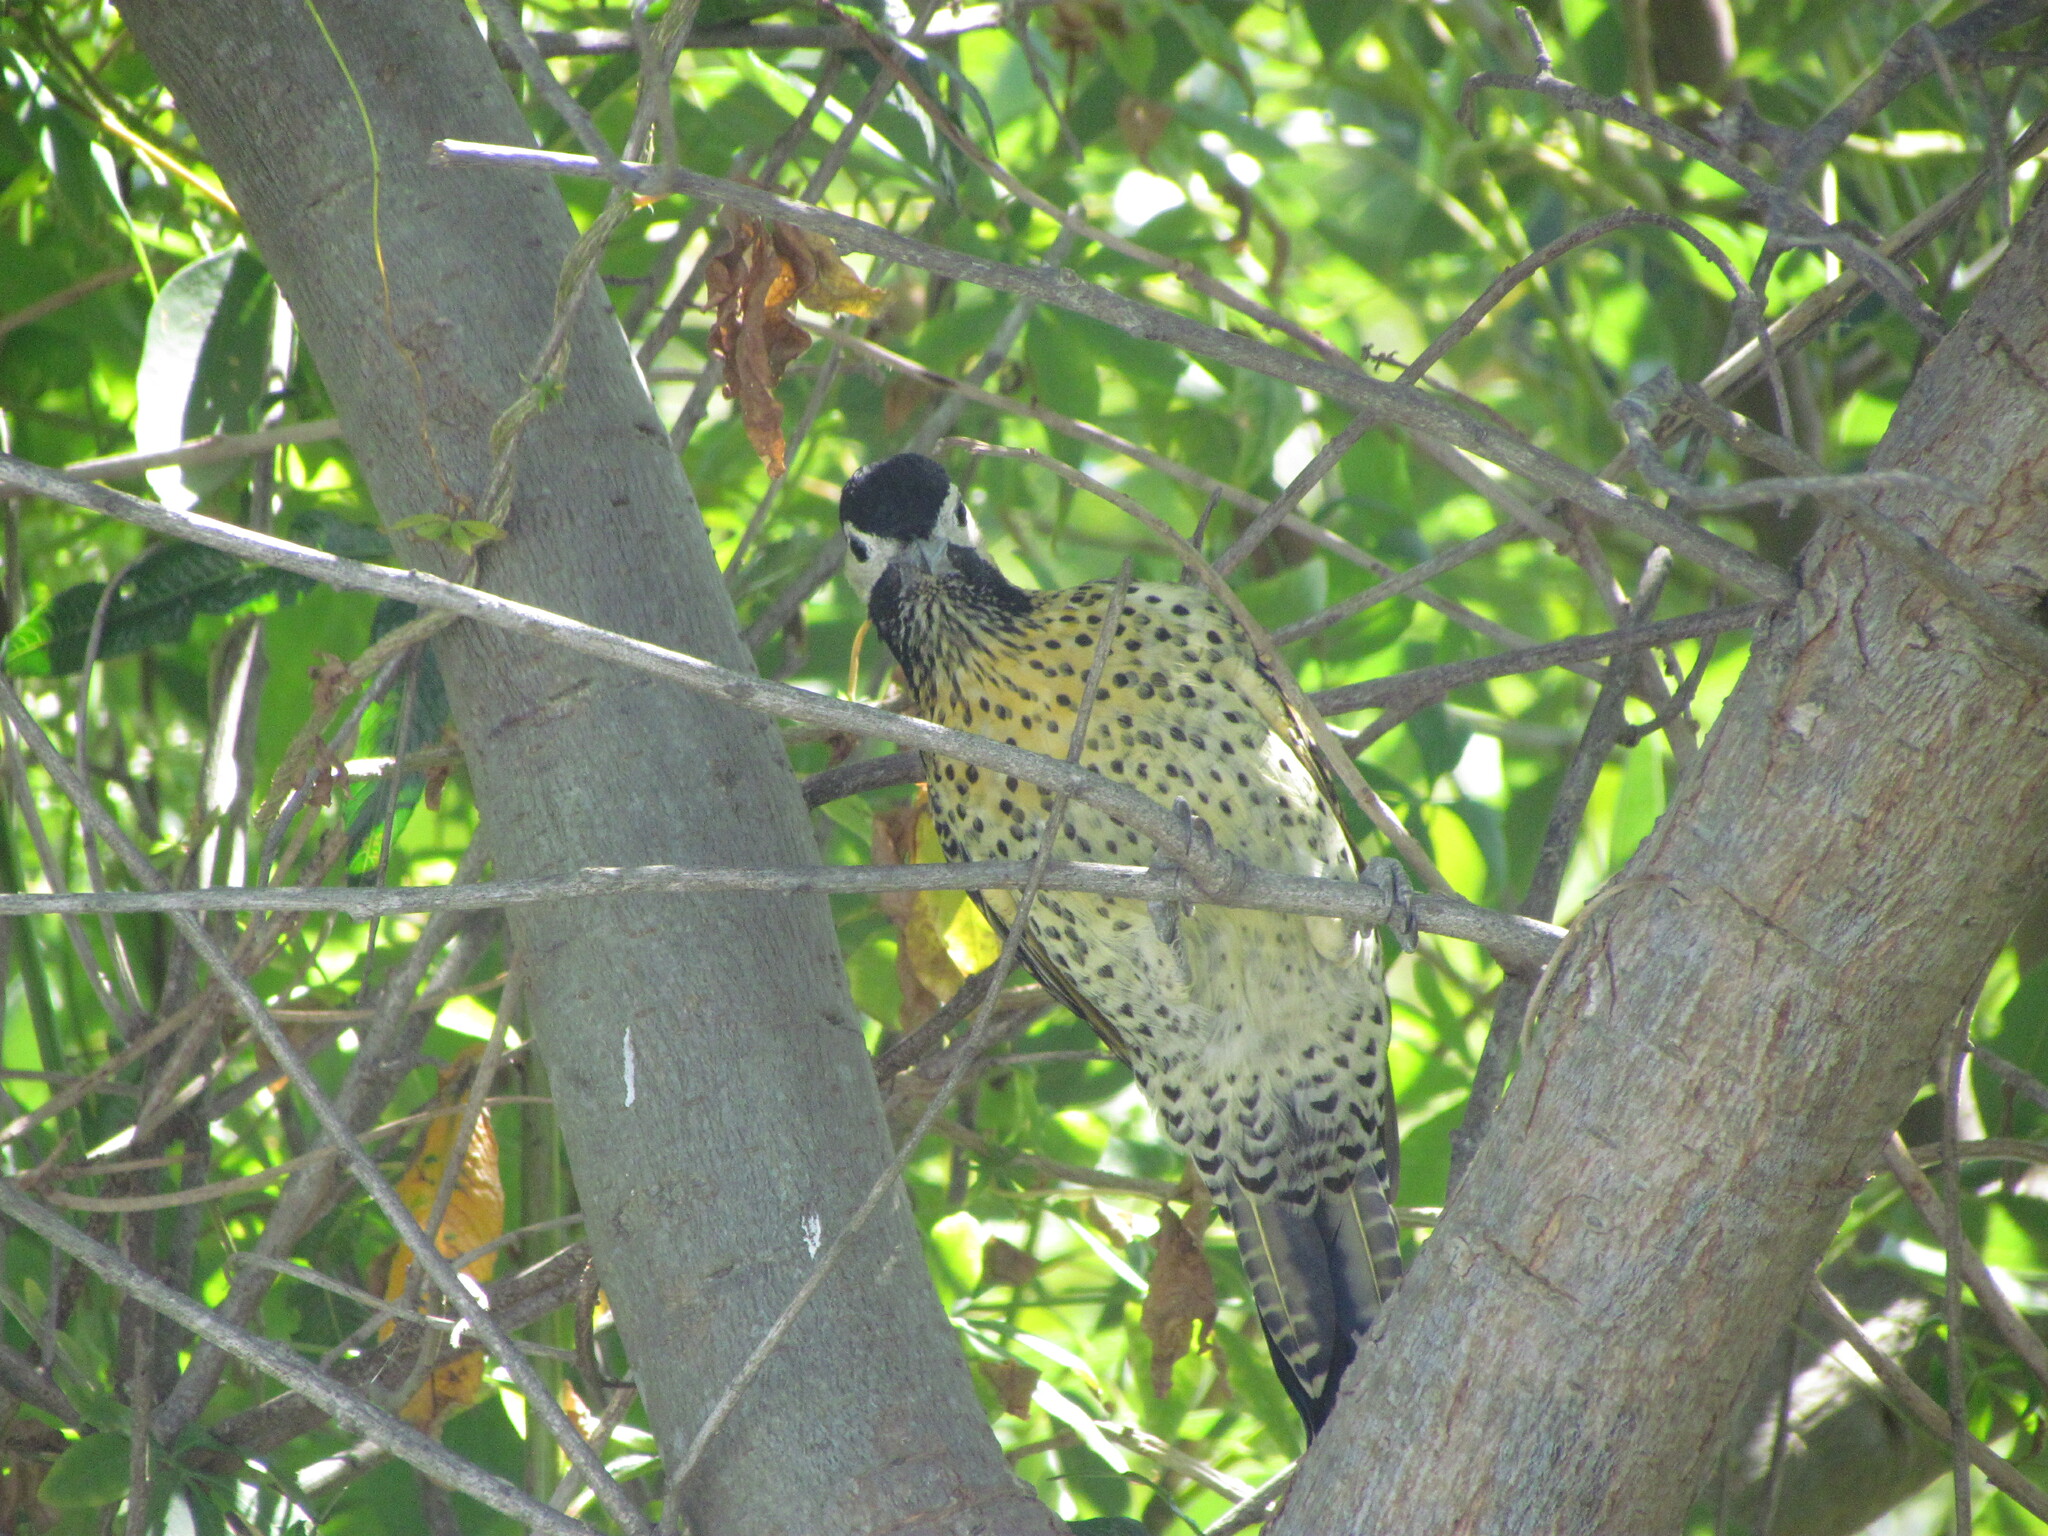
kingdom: Animalia
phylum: Chordata
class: Aves
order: Piciformes
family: Picidae
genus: Colaptes
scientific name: Colaptes melanochloros
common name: Green-barred woodpecker
